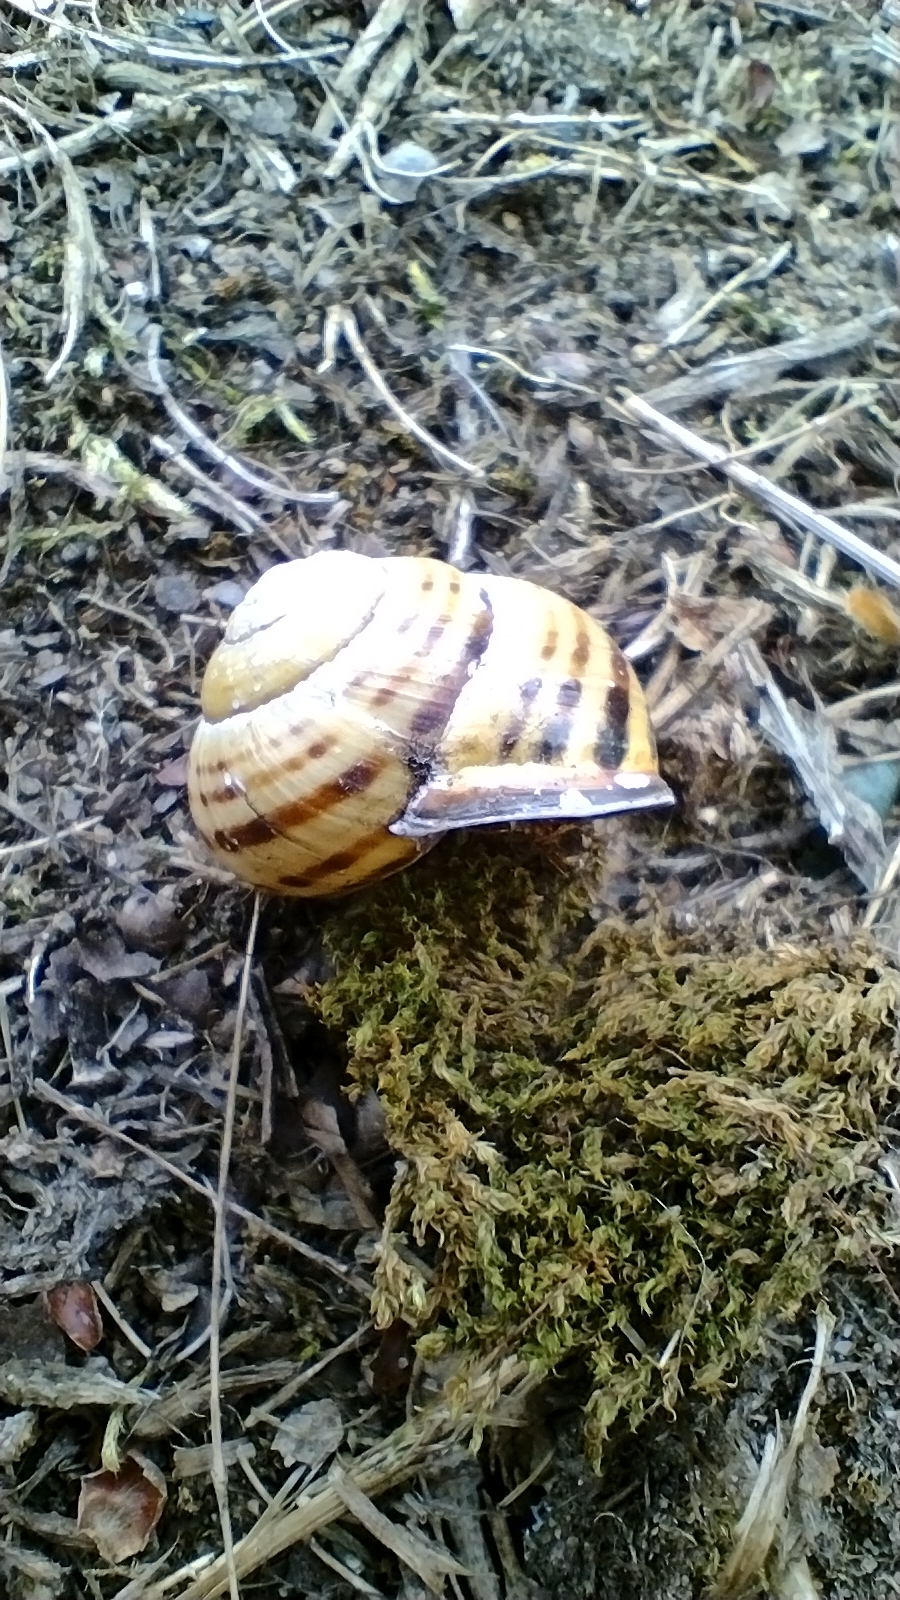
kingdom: Animalia
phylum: Mollusca
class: Gastropoda
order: Stylommatophora
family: Helicidae
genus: Cepaea
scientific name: Cepaea nemoralis
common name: Grovesnail
